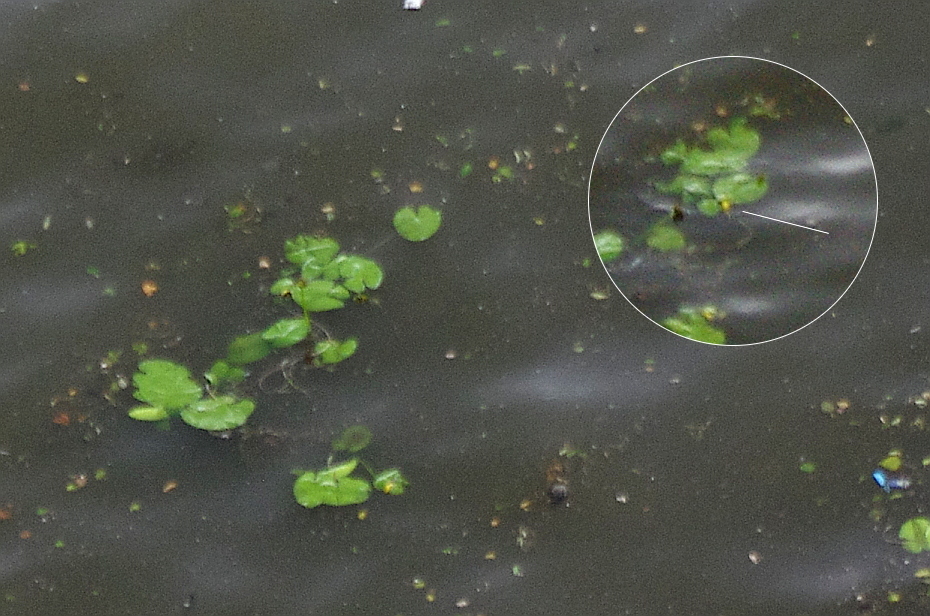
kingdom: Plantae
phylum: Tracheophyta
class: Magnoliopsida
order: Nymphaeales
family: Nymphaeaceae
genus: Nuphar
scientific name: Nuphar lutea
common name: Yellow water-lily
